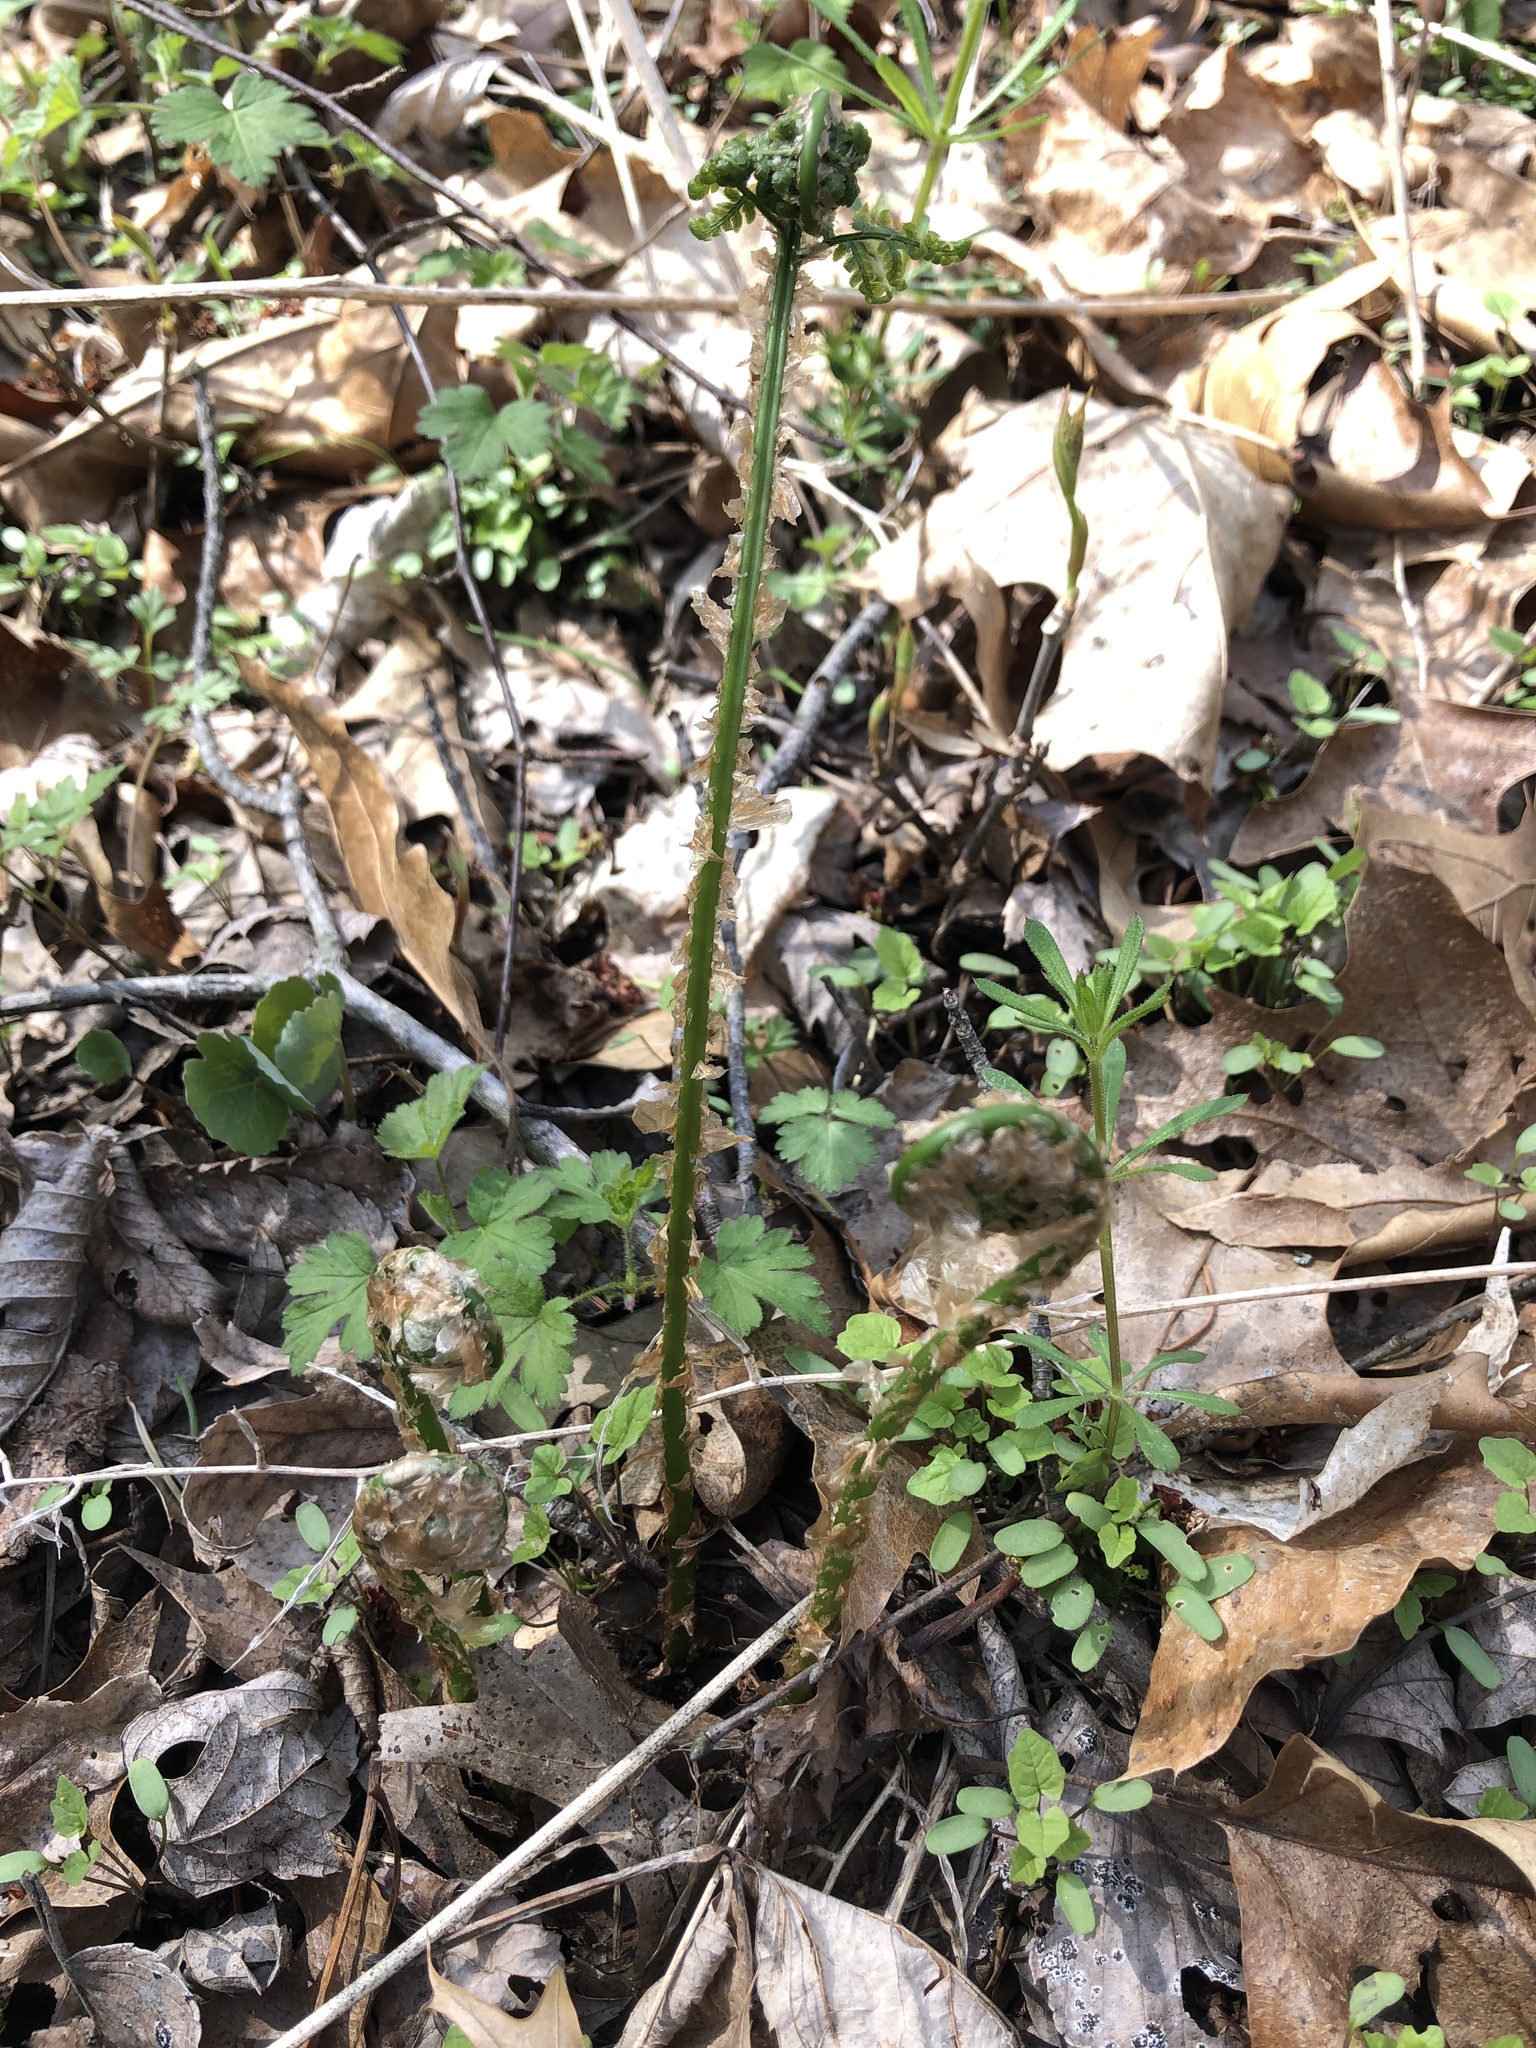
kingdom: Plantae
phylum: Tracheophyta
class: Polypodiopsida
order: Polypodiales
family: Dryopteridaceae
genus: Polystichum
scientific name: Polystichum acrostichoides
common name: Christmas fern
